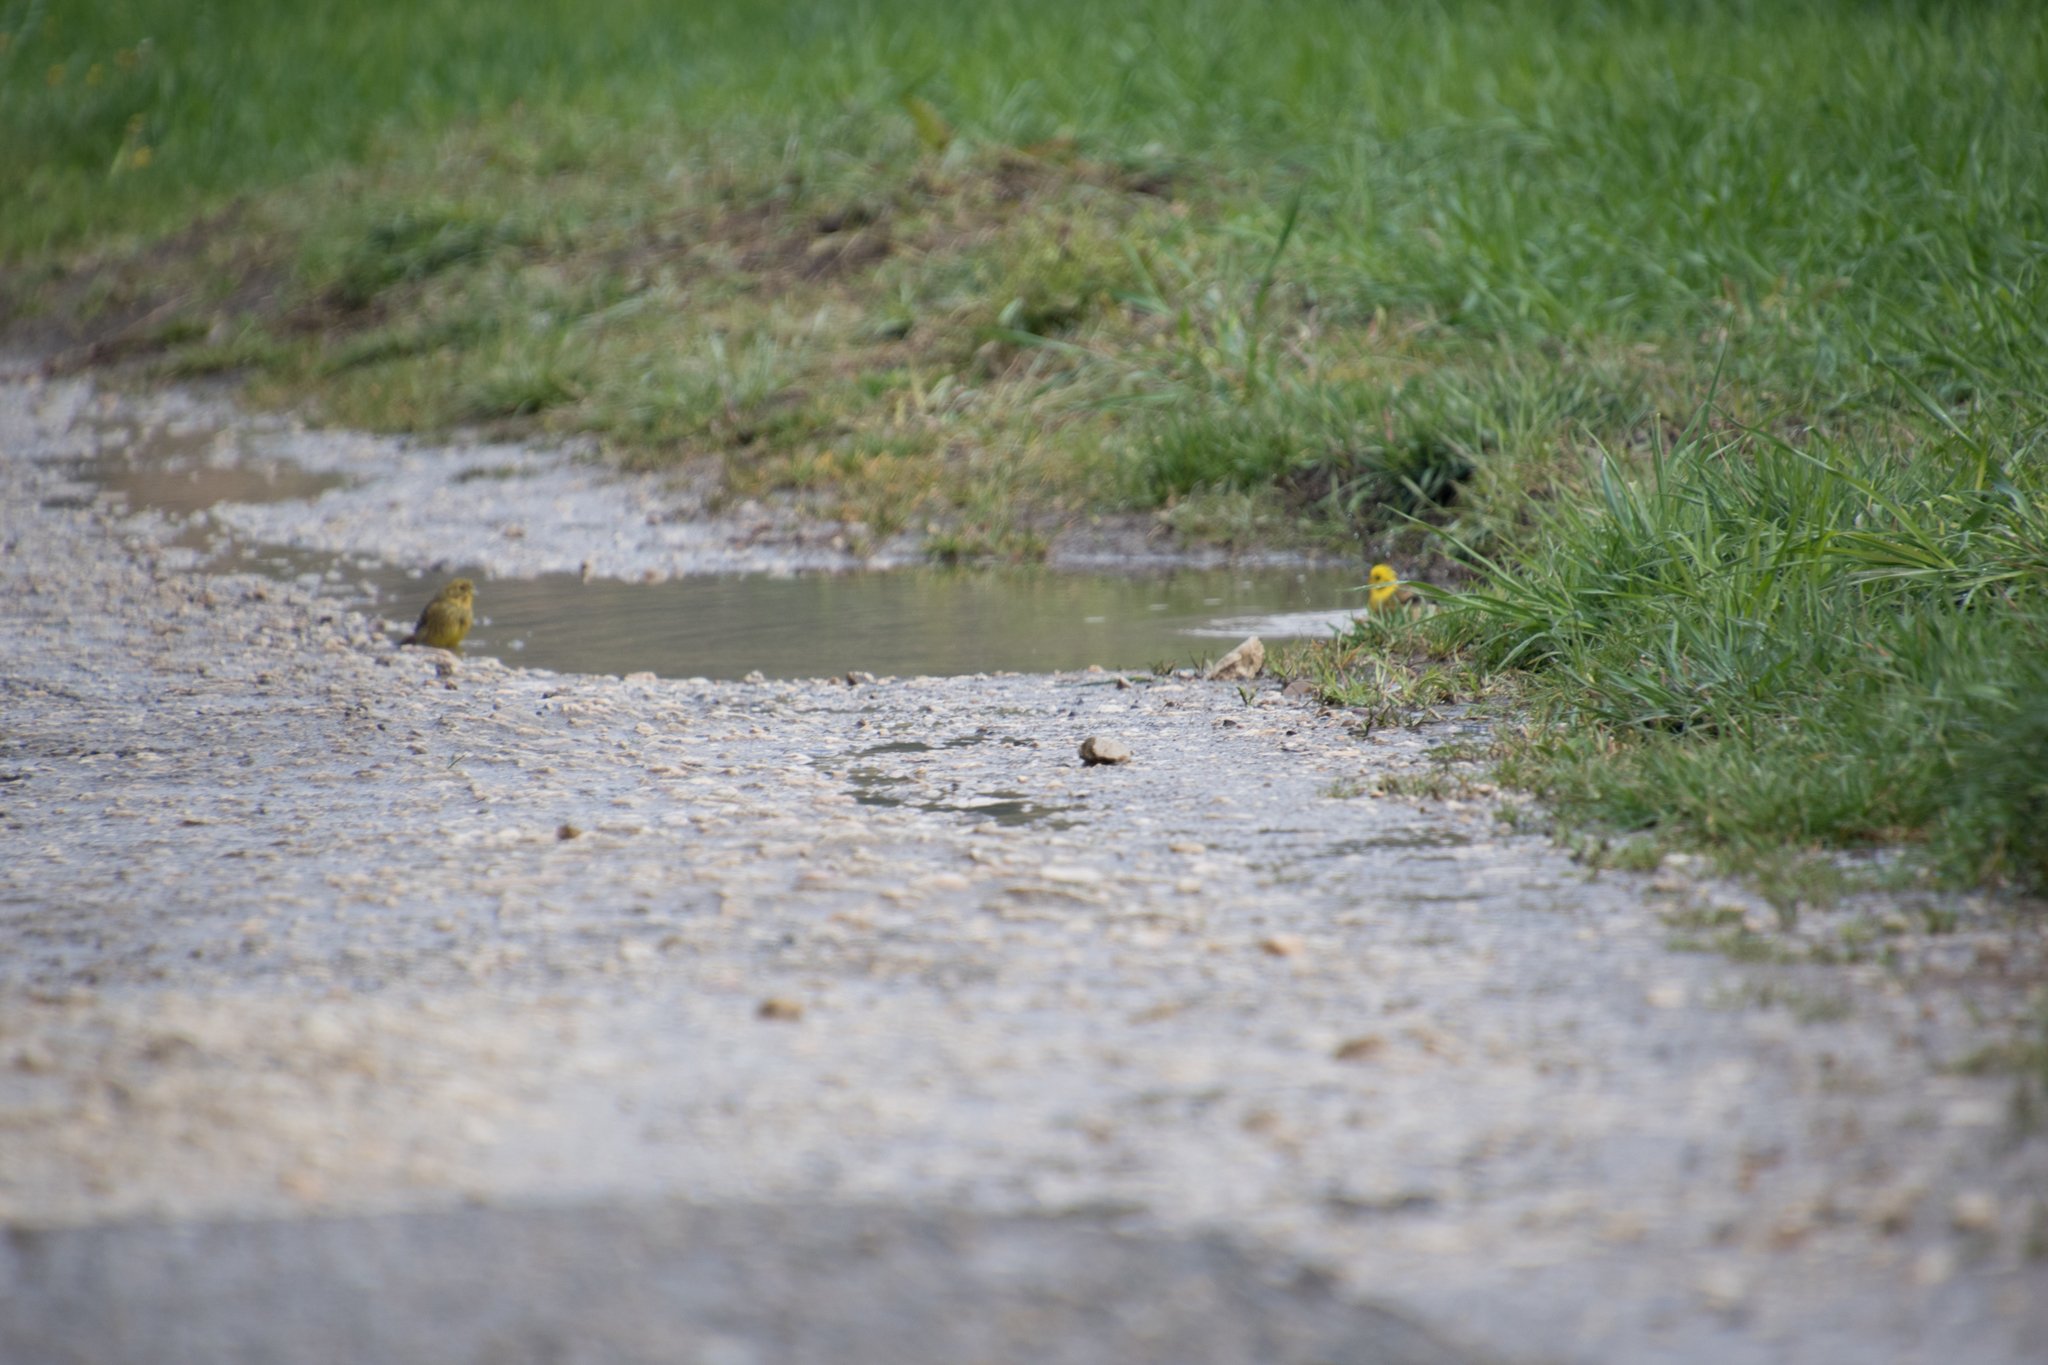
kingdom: Animalia
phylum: Chordata
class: Aves
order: Passeriformes
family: Emberizidae
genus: Emberiza
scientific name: Emberiza citrinella
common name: Yellowhammer
